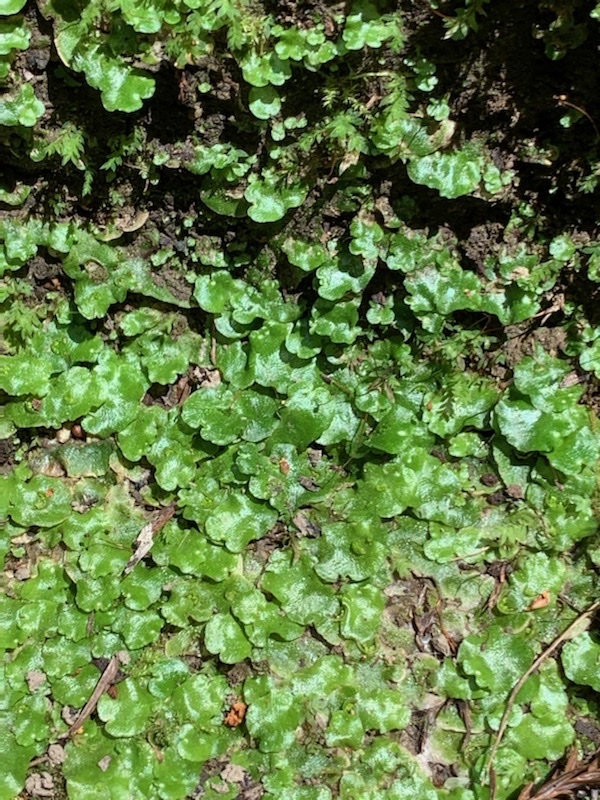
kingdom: Plantae
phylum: Marchantiophyta
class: Marchantiopsida
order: Lunulariales
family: Lunulariaceae
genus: Lunularia
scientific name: Lunularia cruciata
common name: Crescent-cup liverwort
